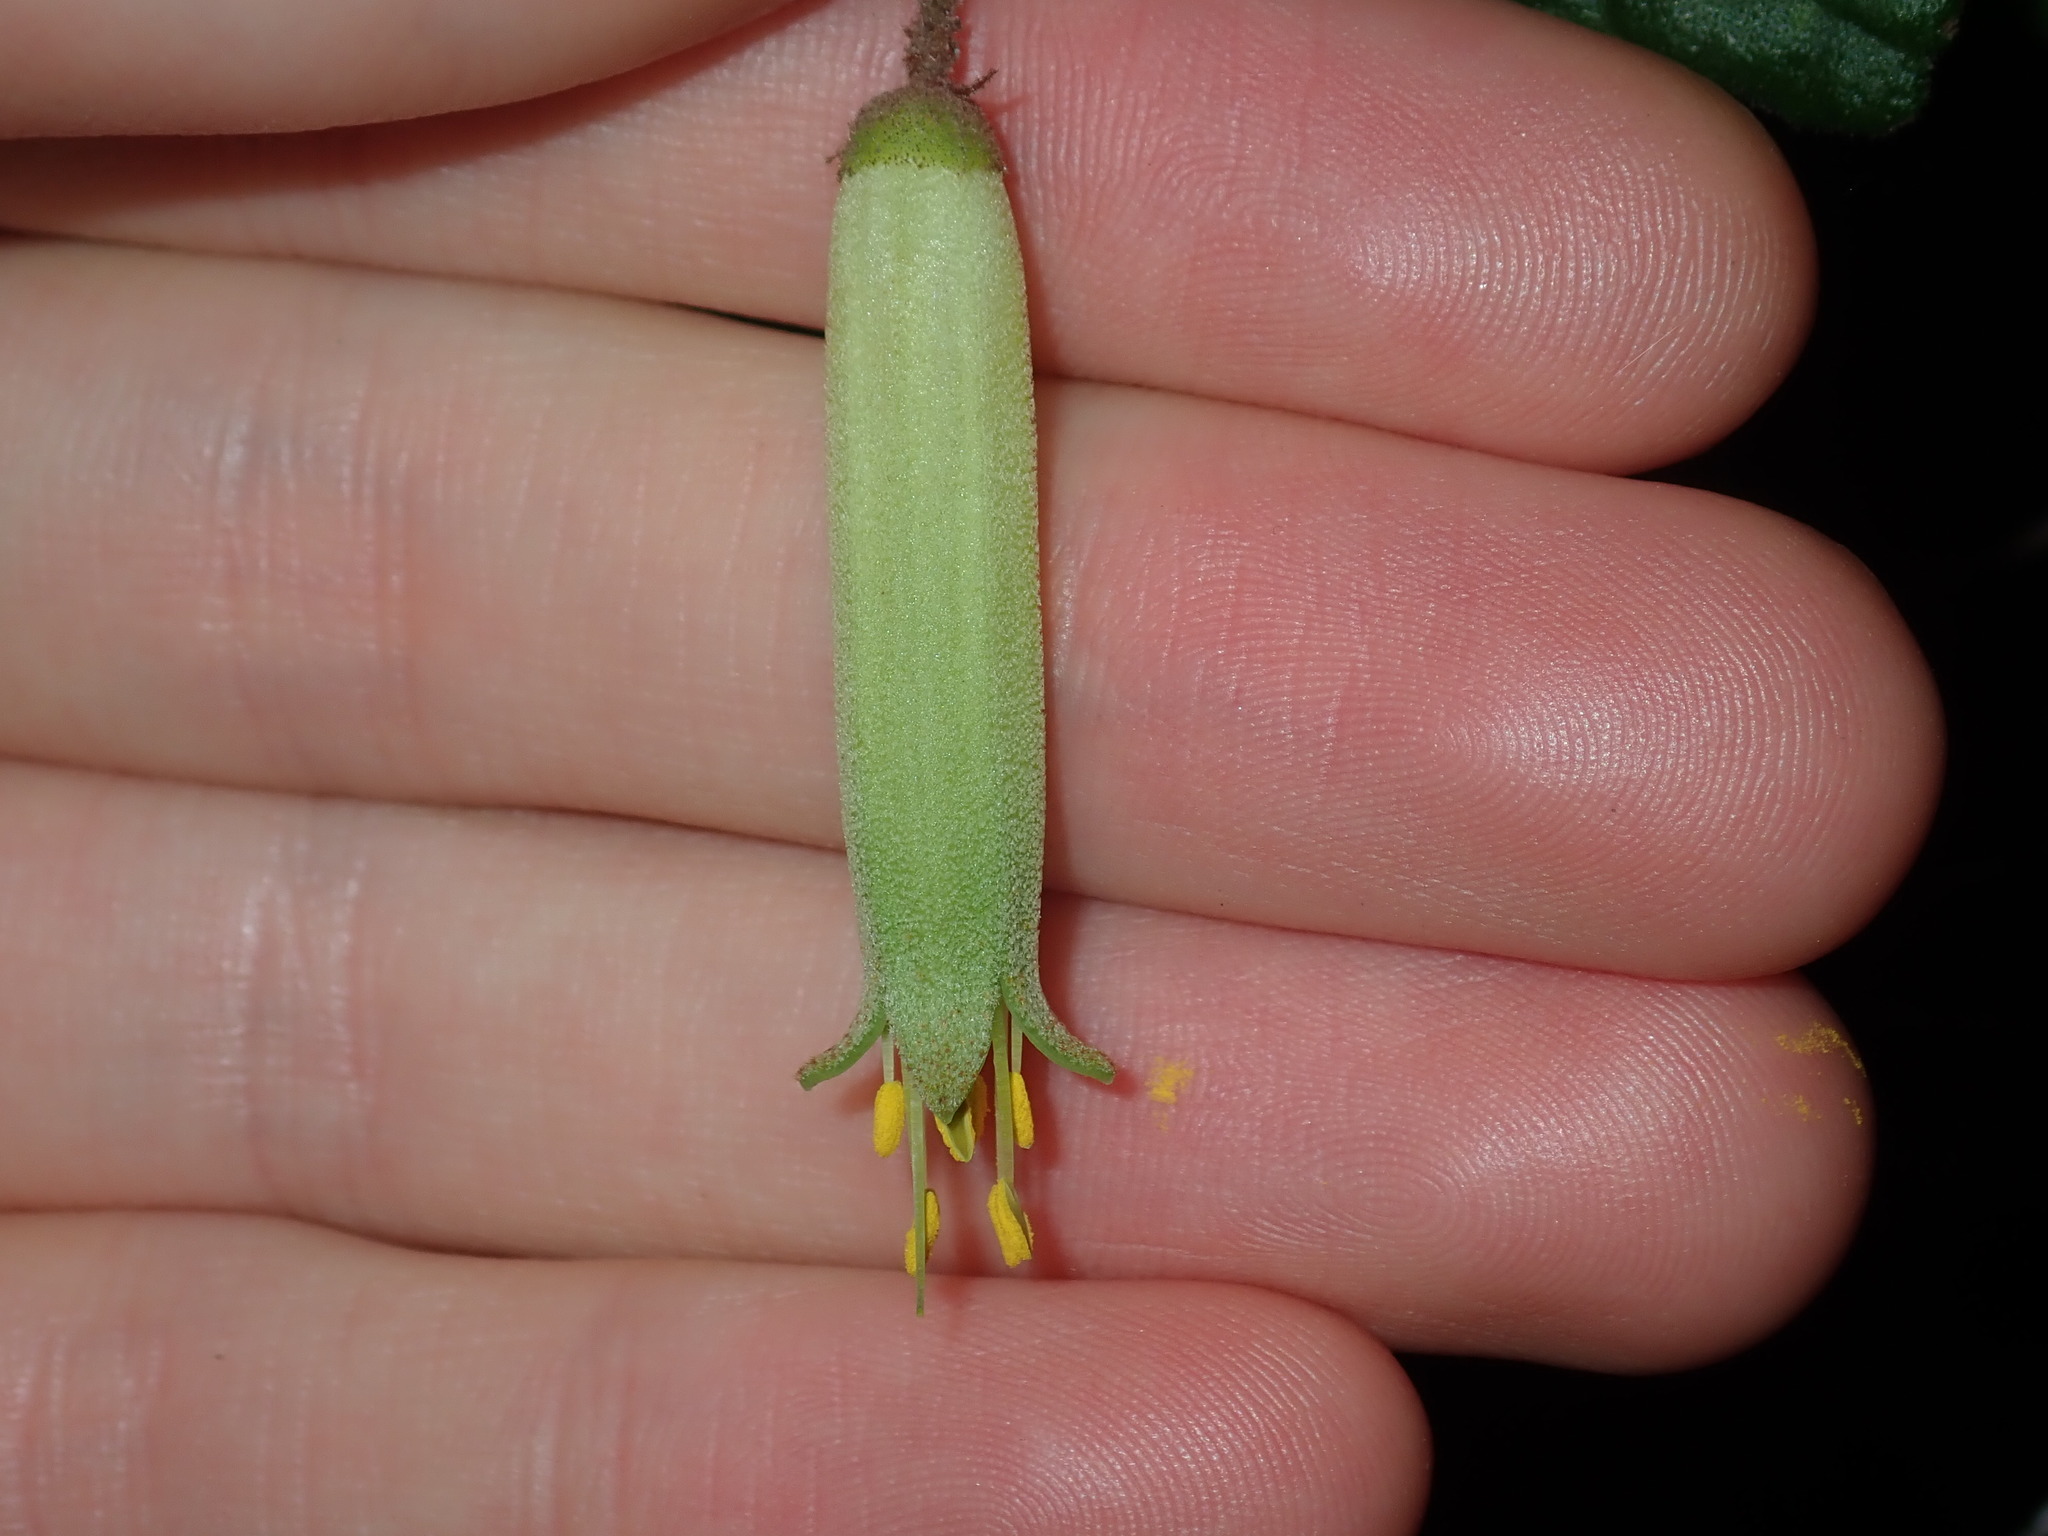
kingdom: Plantae
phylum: Tracheophyta
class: Magnoliopsida
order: Sapindales
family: Rutaceae
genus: Correa
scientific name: Correa reflexa
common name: Common correa
